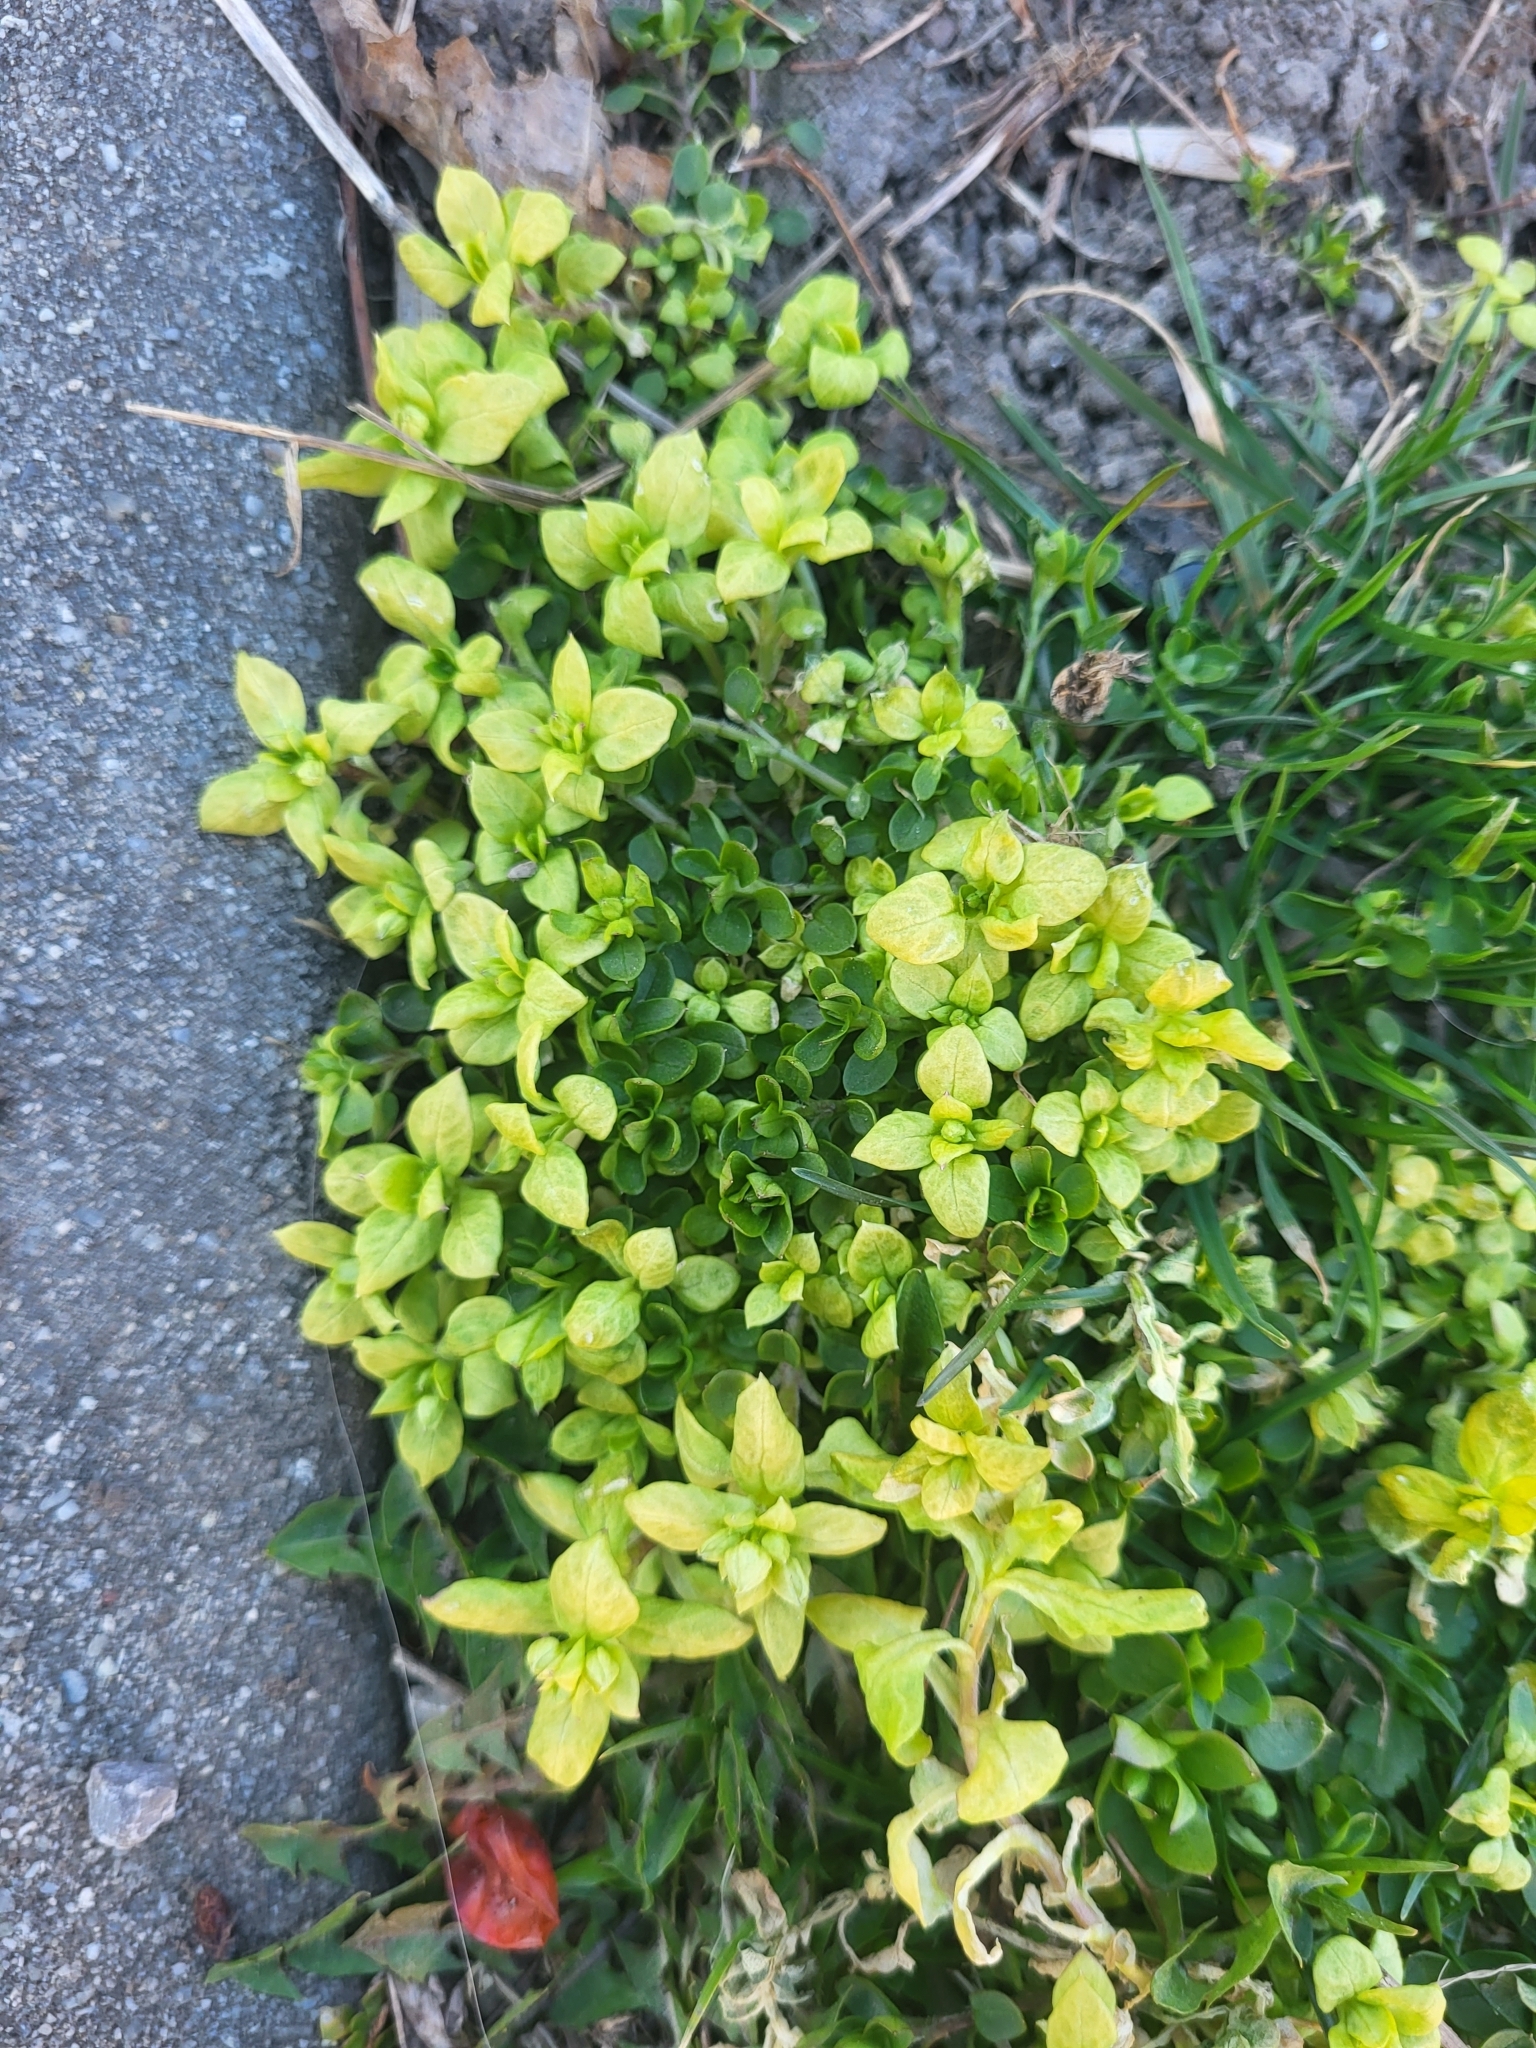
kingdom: Chromista
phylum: Oomycota
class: Peronosporea
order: Peronosporales
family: Peronosporaceae
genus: Peronospora
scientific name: Peronospora alsinearum
